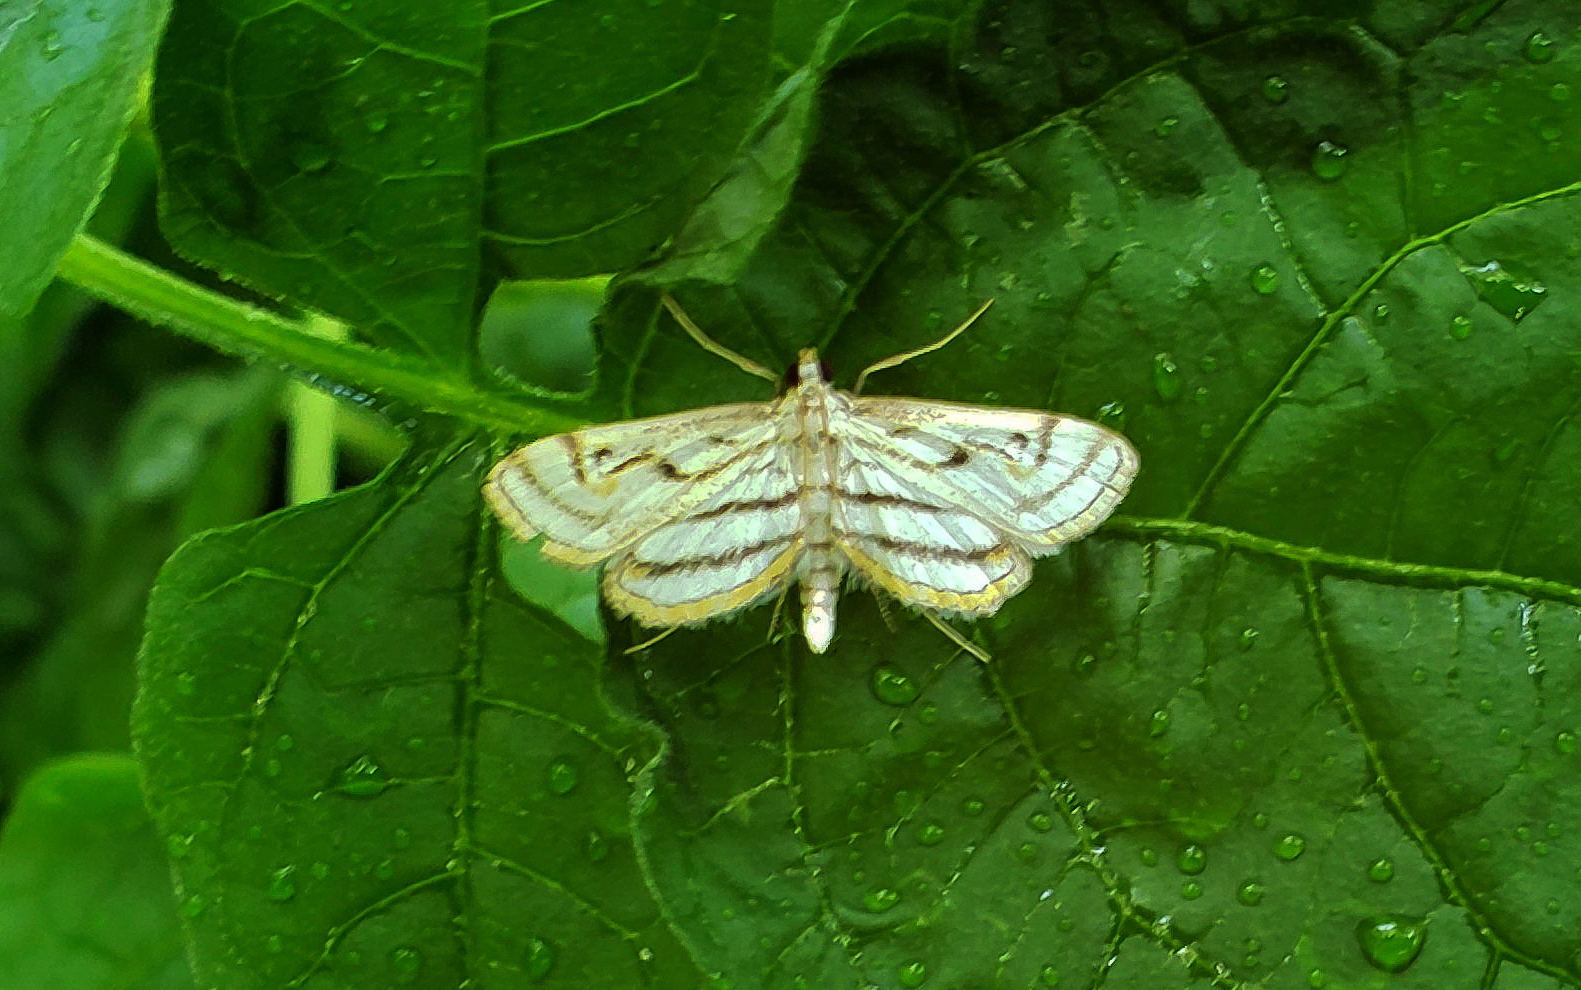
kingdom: Animalia
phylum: Arthropoda
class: Insecta
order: Lepidoptera
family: Crambidae
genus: Parapoynx
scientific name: Parapoynx badiusalis
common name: Chestnut-marked pondweed moth
